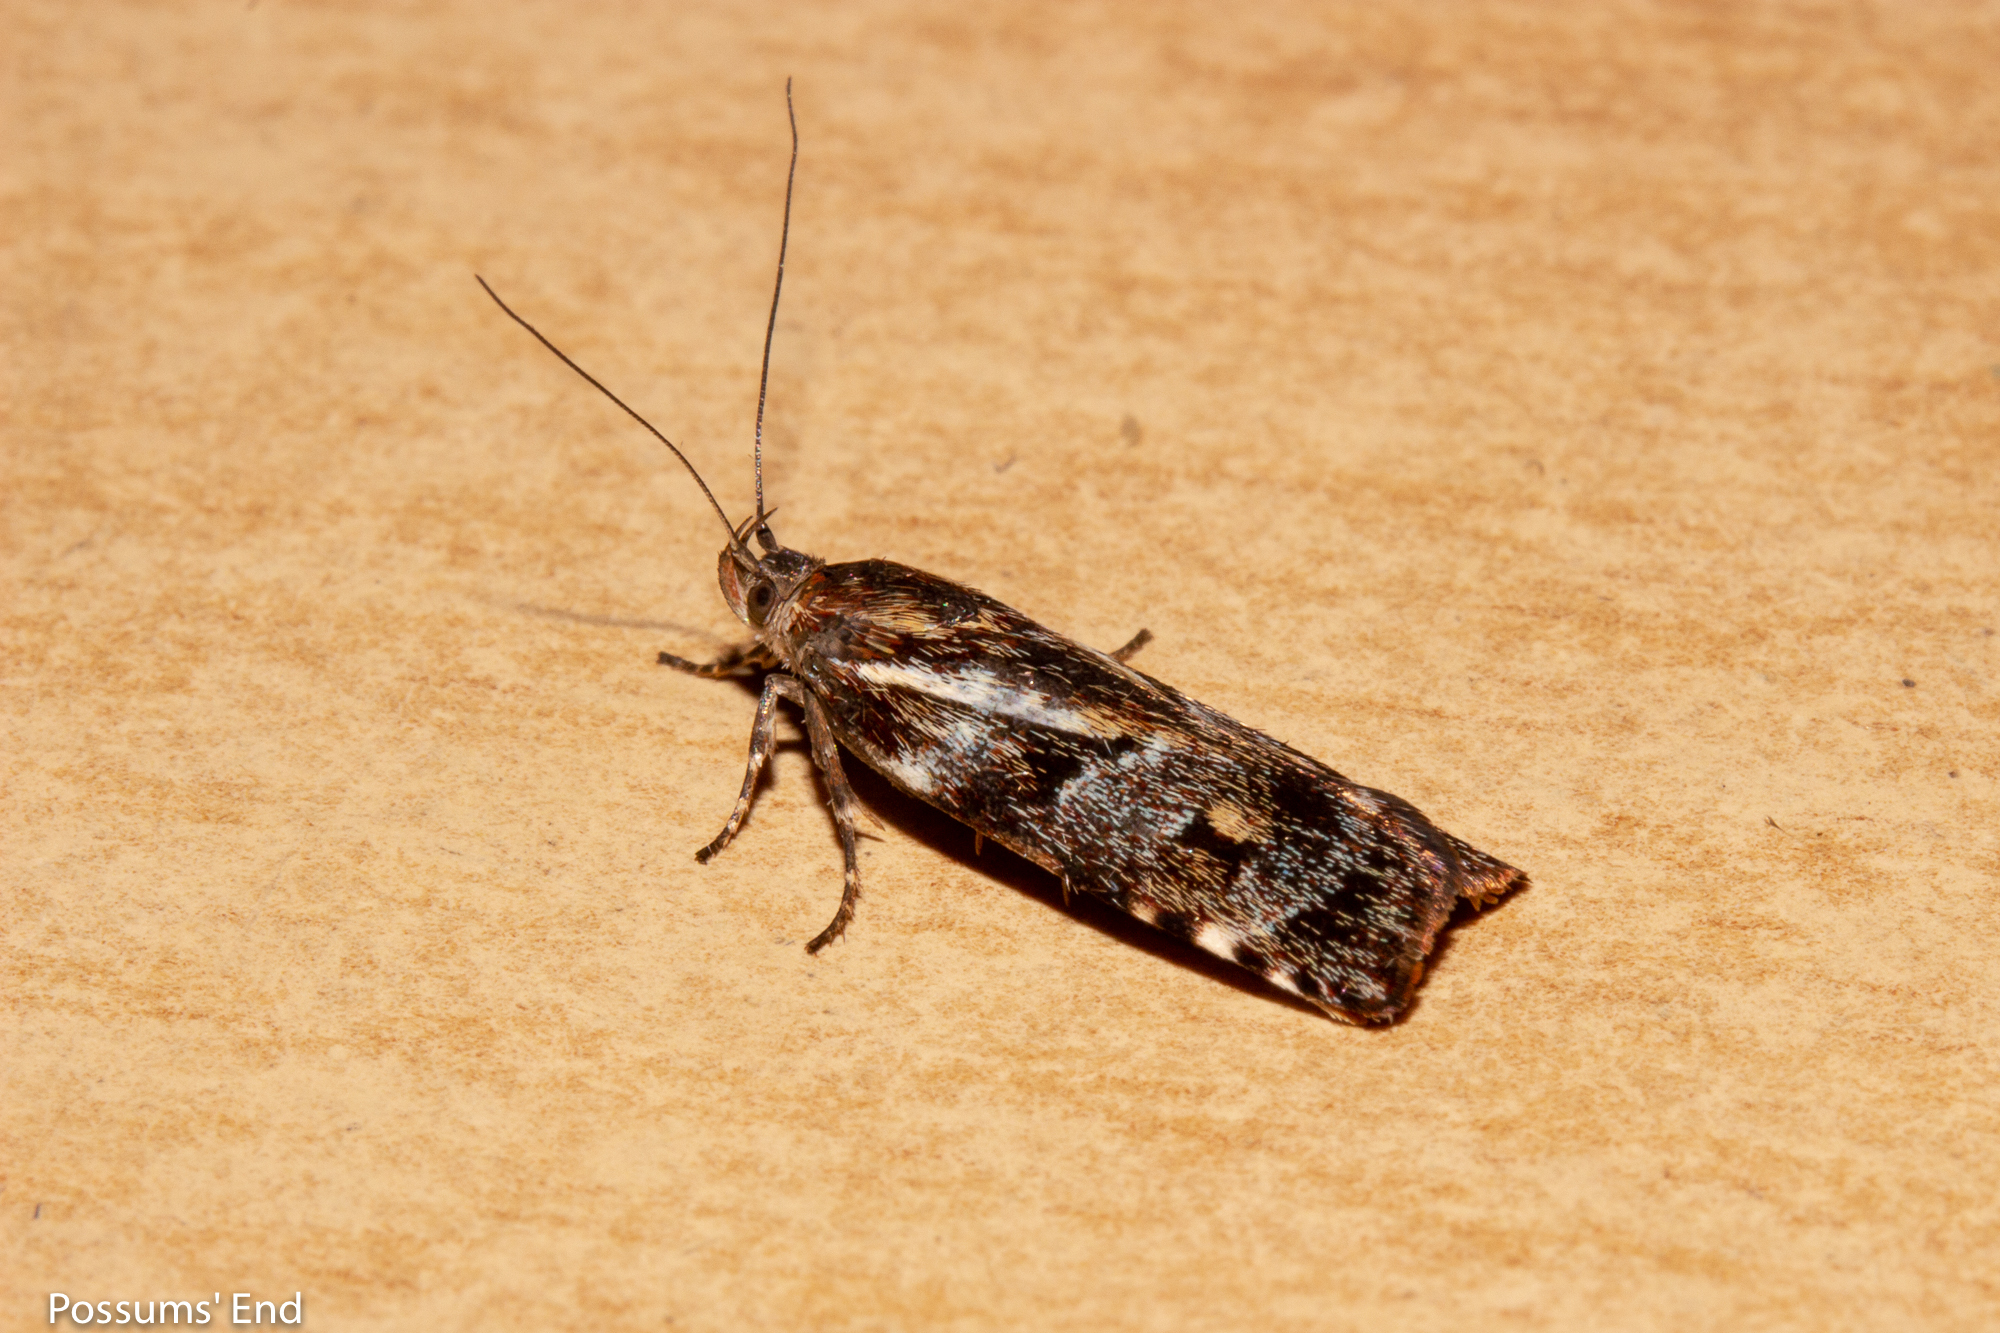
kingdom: Animalia
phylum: Arthropoda
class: Insecta
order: Lepidoptera
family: Oecophoridae
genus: Hierodoris
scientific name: Hierodoris
